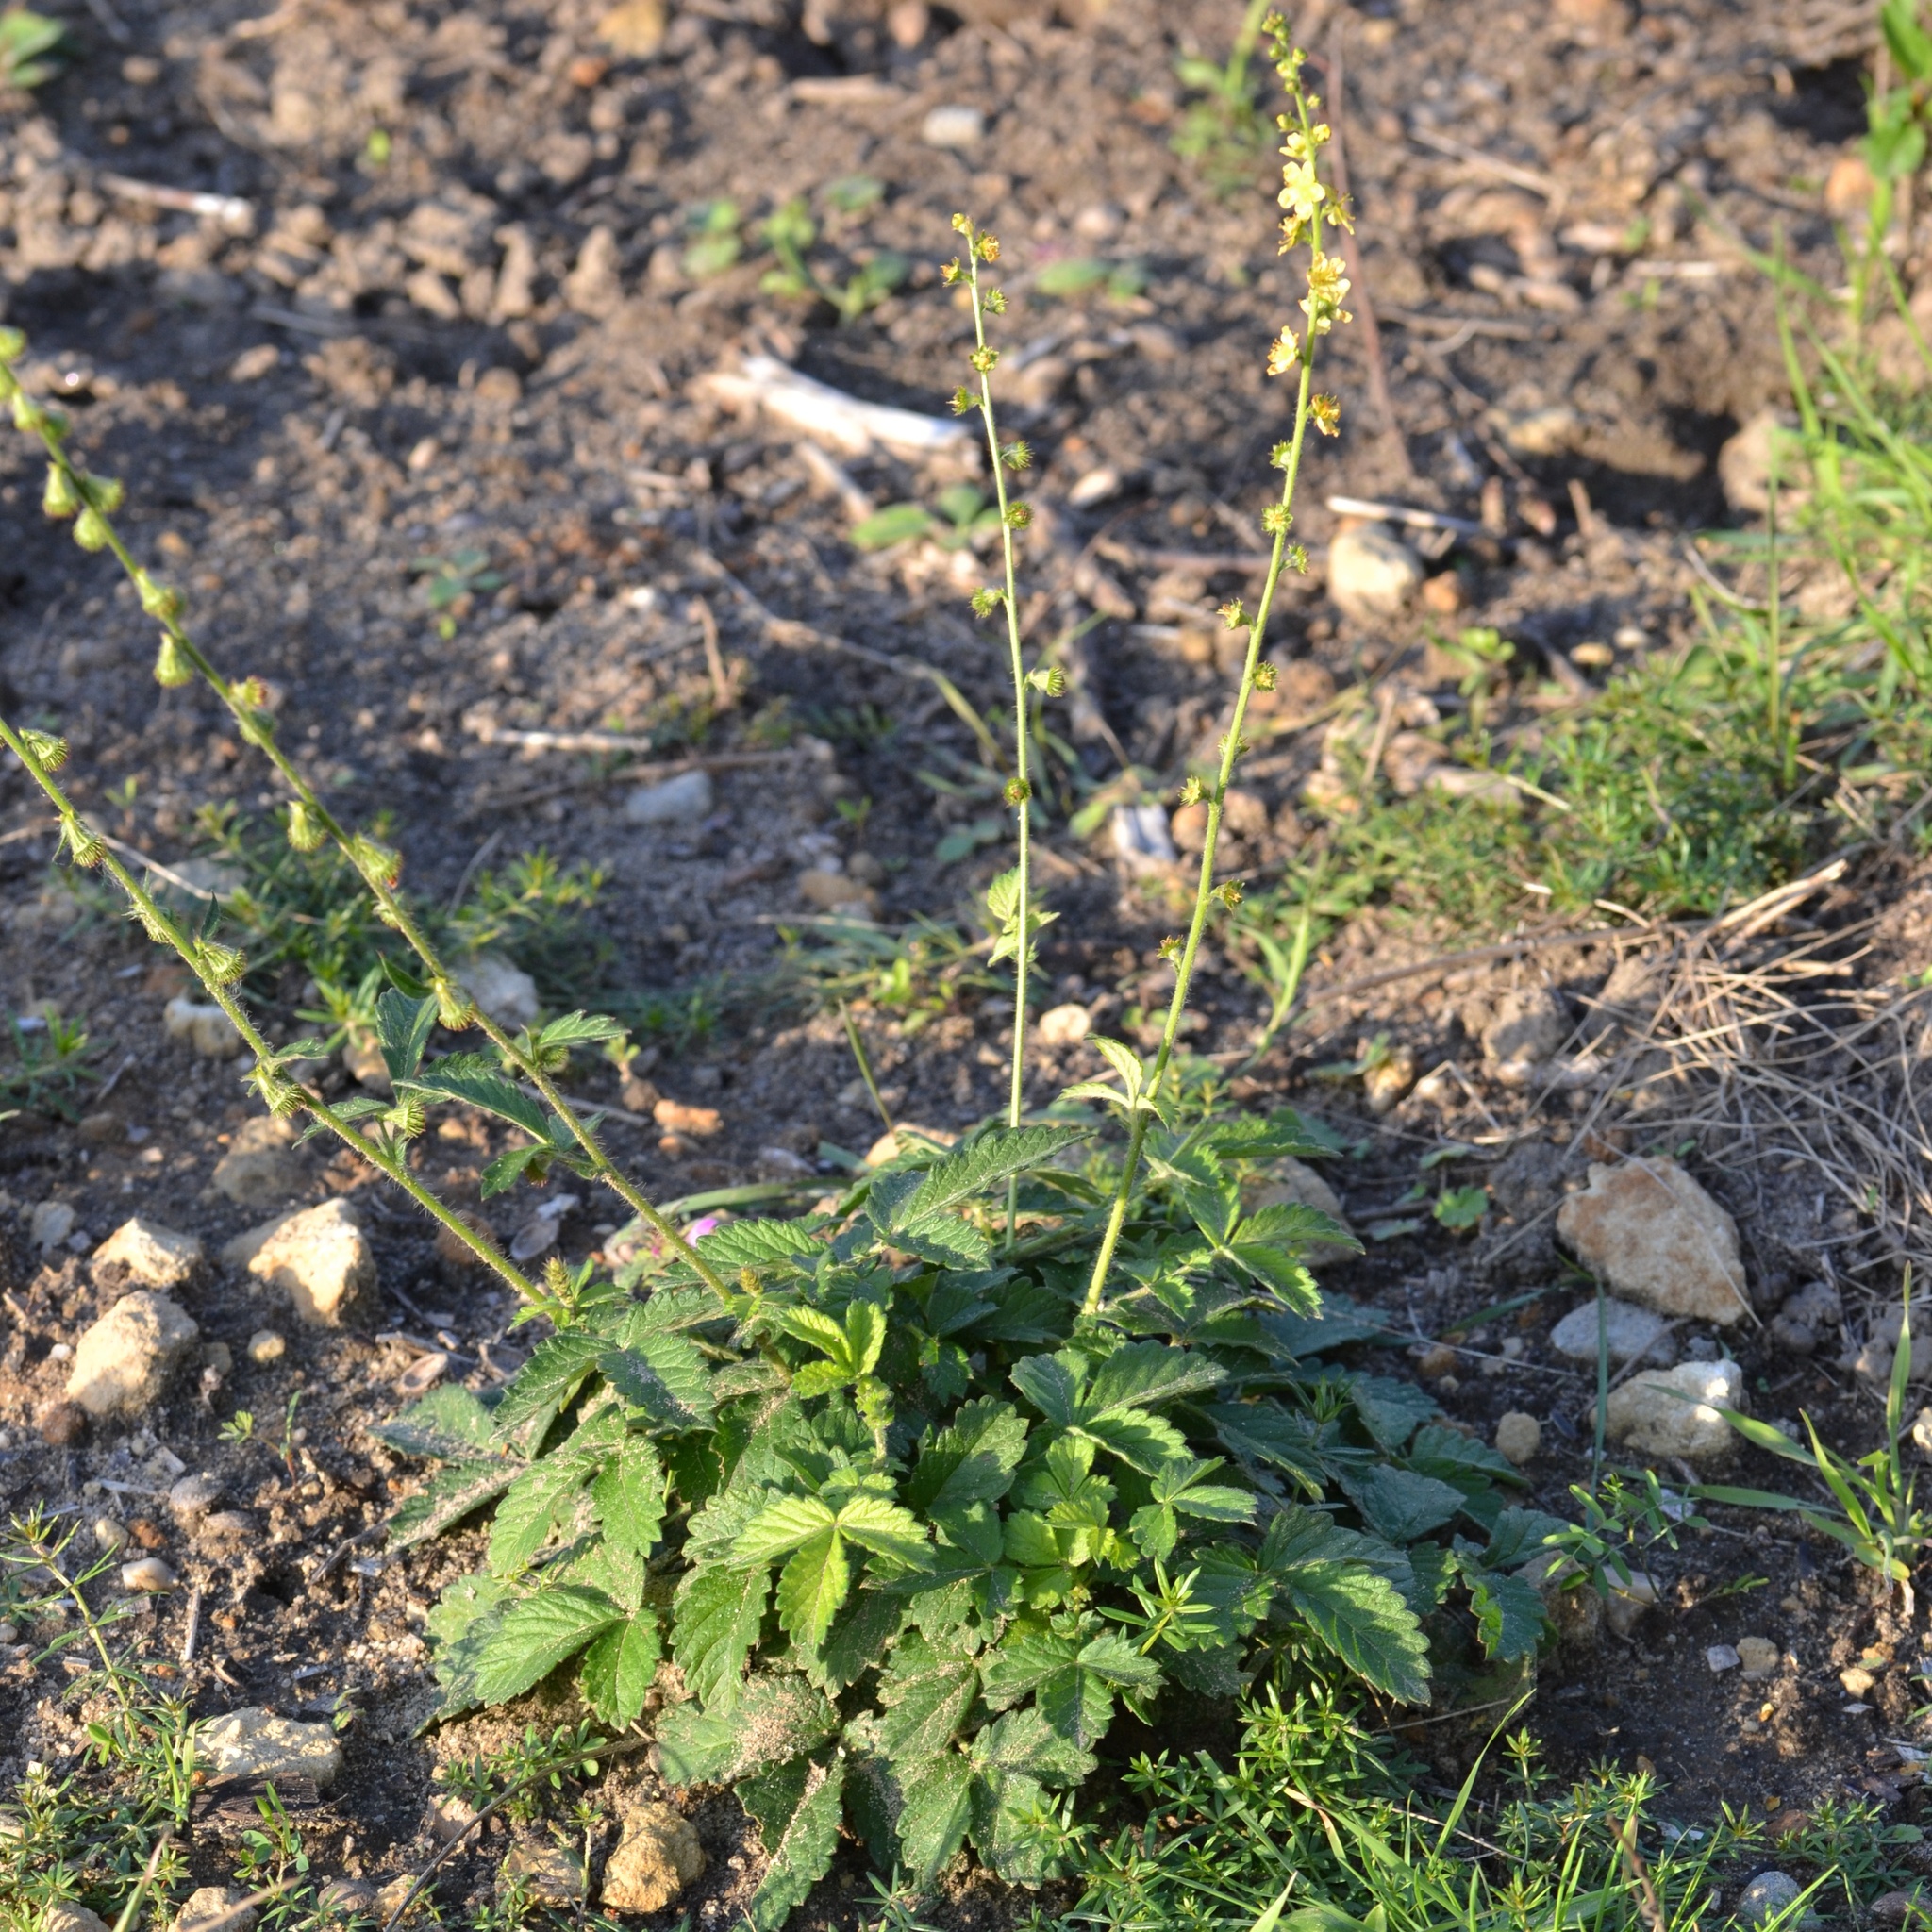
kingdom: Plantae
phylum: Tracheophyta
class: Magnoliopsida
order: Rosales
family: Rosaceae
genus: Agrimonia
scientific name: Agrimonia eupatoria
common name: Agrimony
